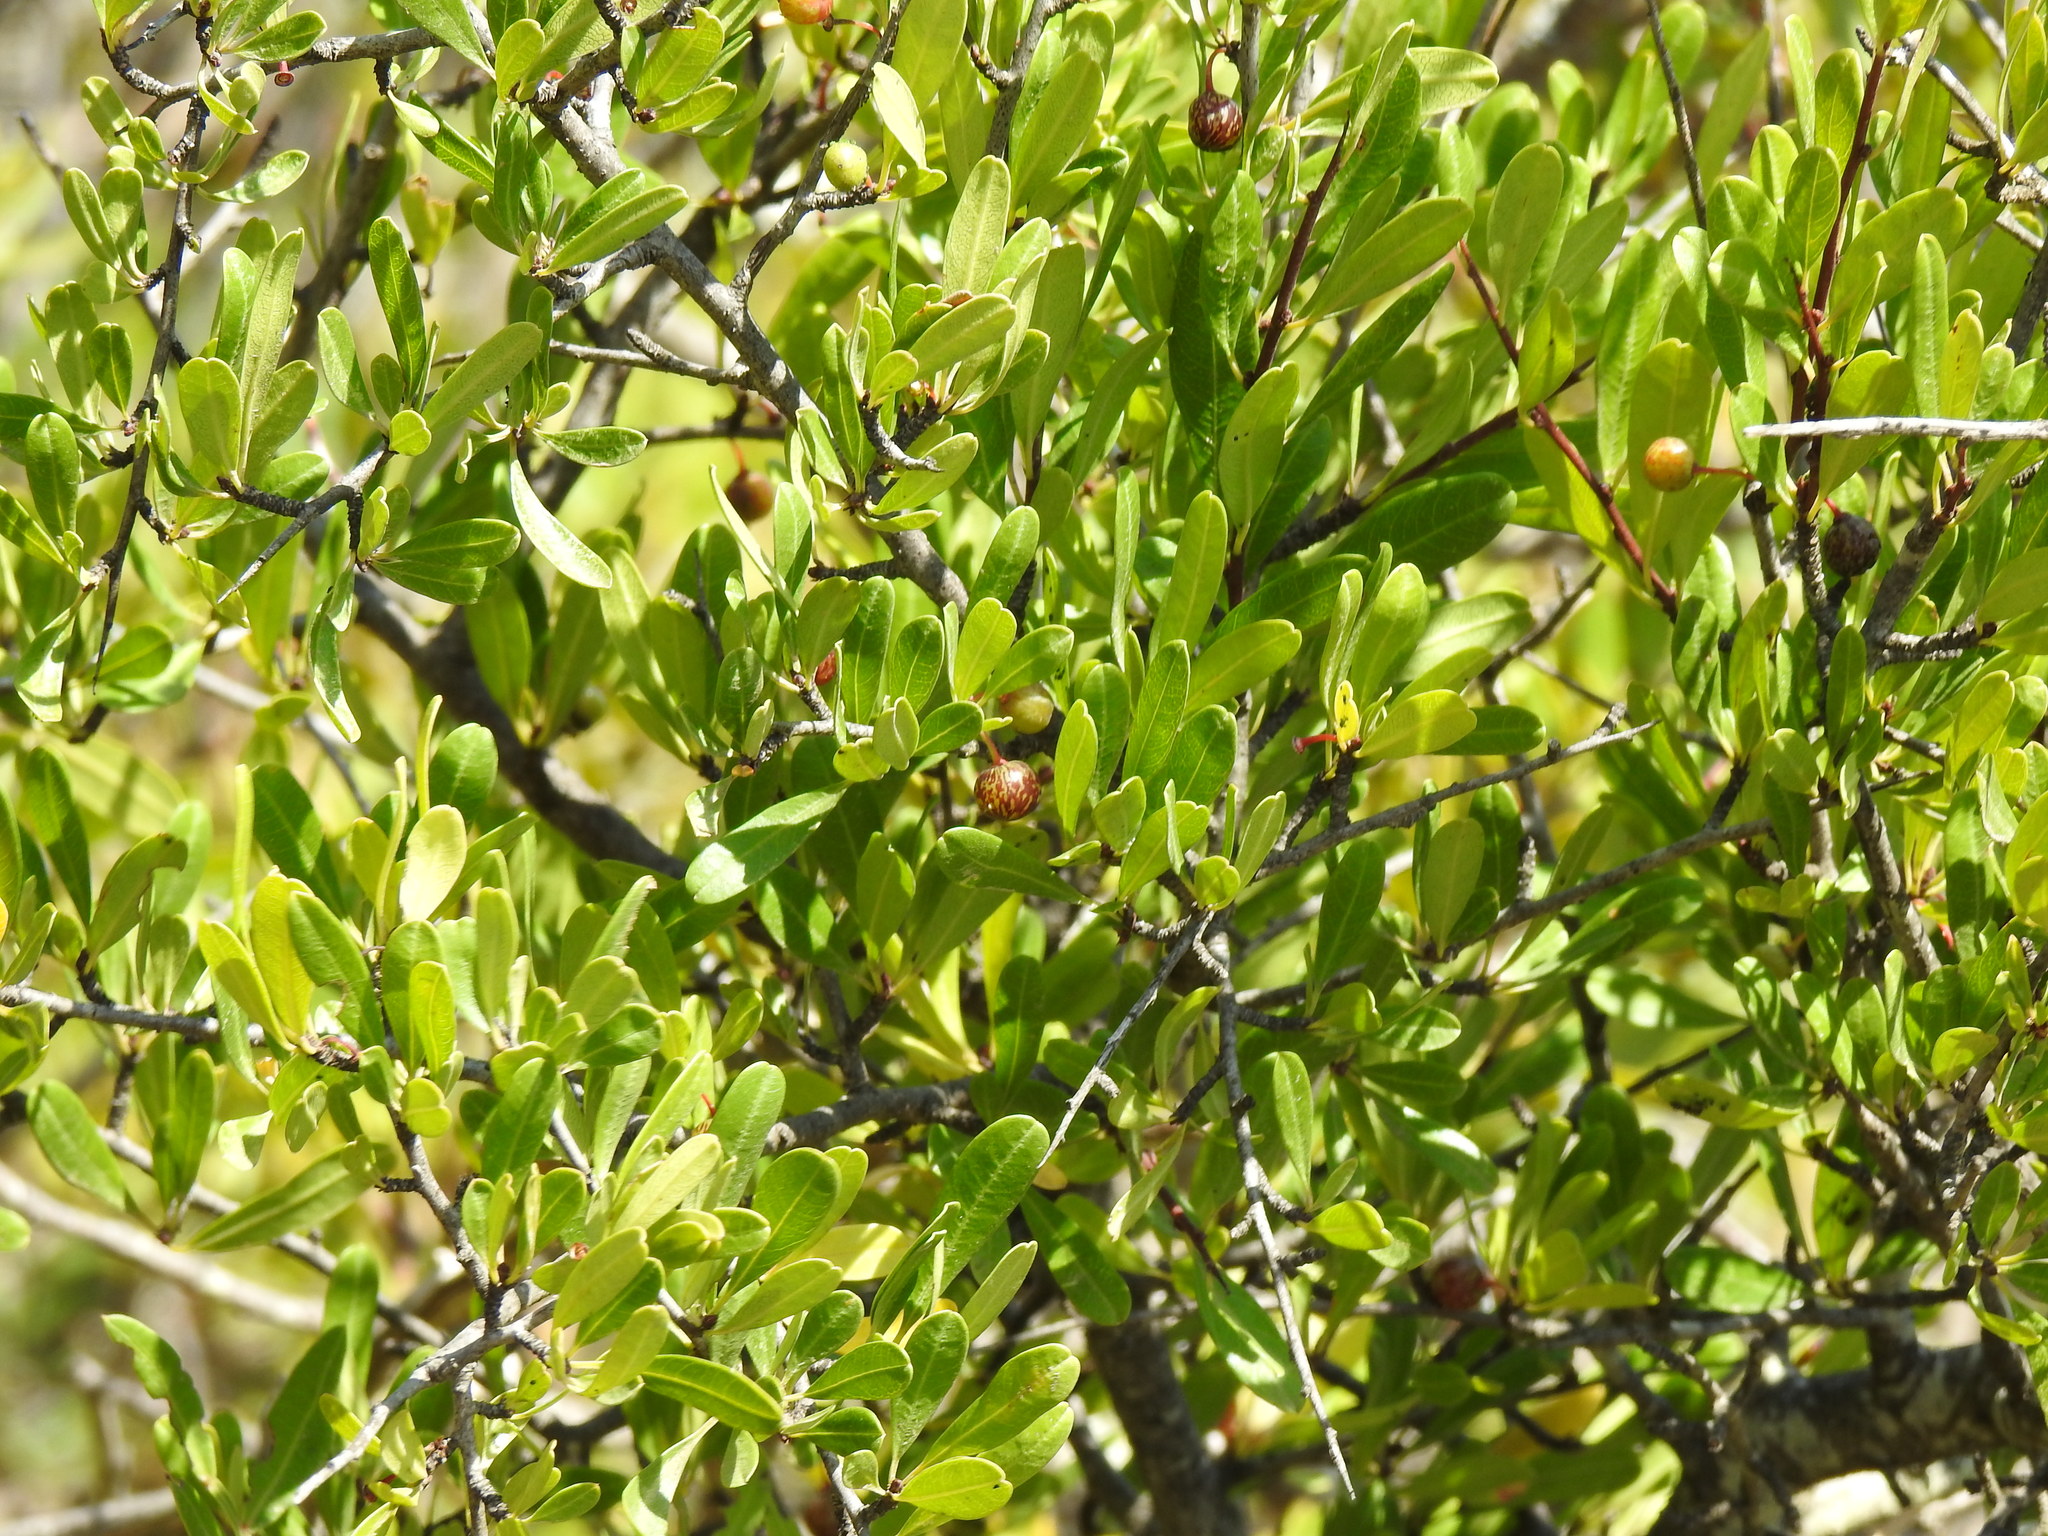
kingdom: Plantae
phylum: Tracheophyta
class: Magnoliopsida
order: Rosales
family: Rhamnaceae
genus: Rhamnus
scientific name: Rhamnus oleoides
